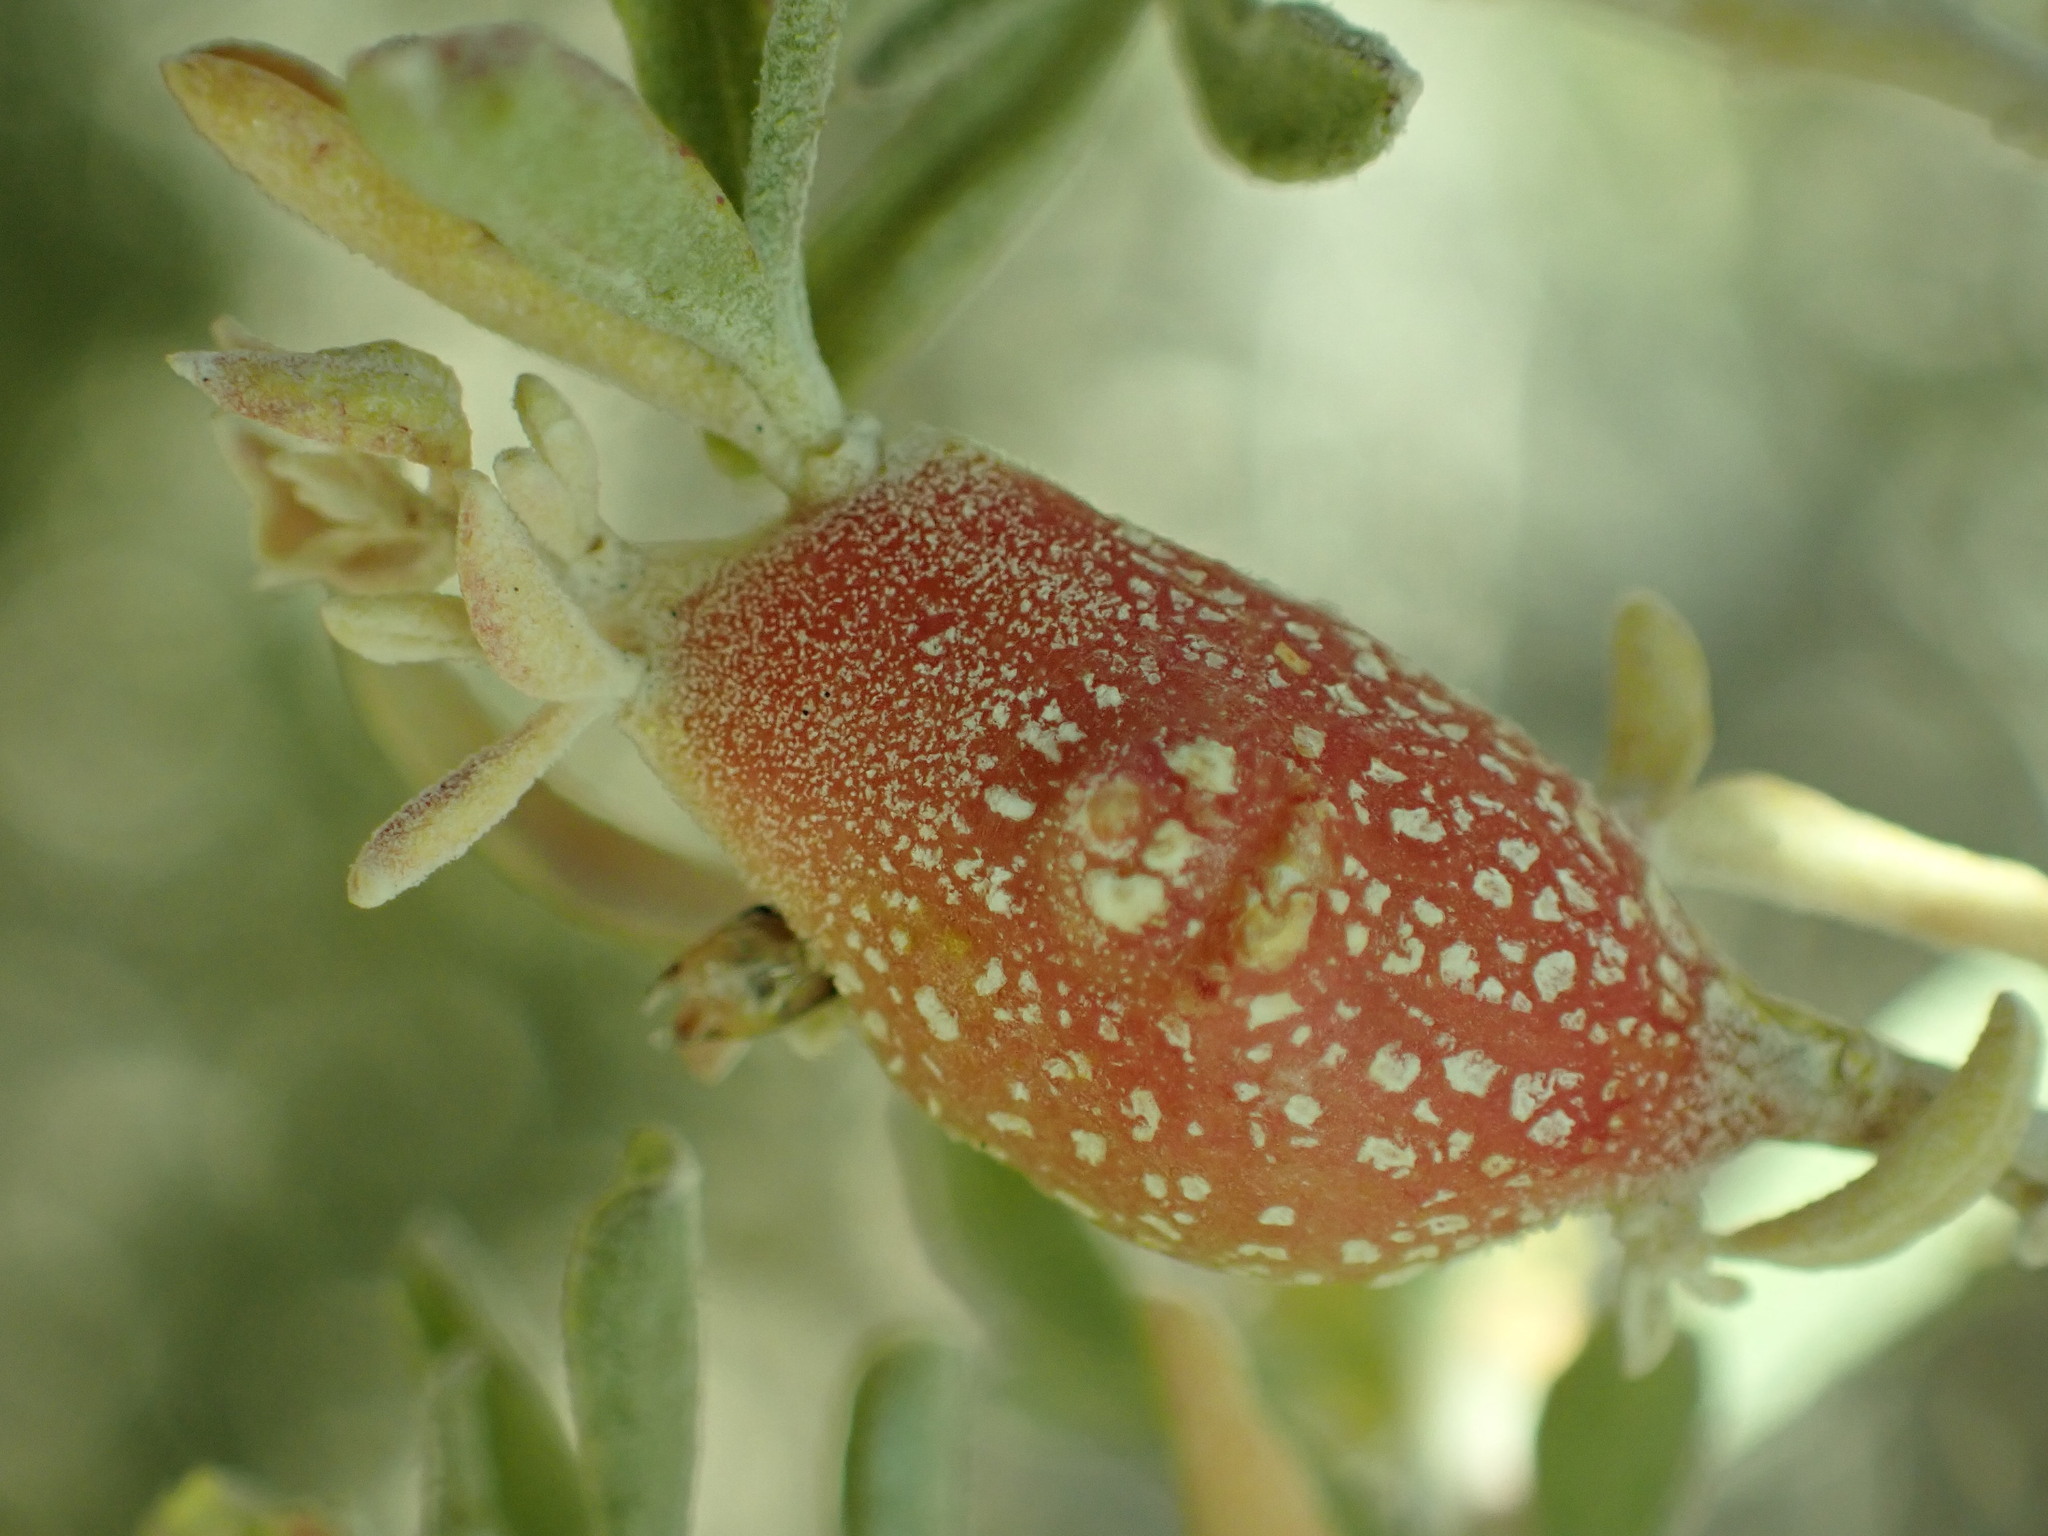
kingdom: Animalia
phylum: Arthropoda
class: Insecta
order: Diptera
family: Cecidomyiidae
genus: Asphondylia
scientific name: Asphondylia atriplicis
